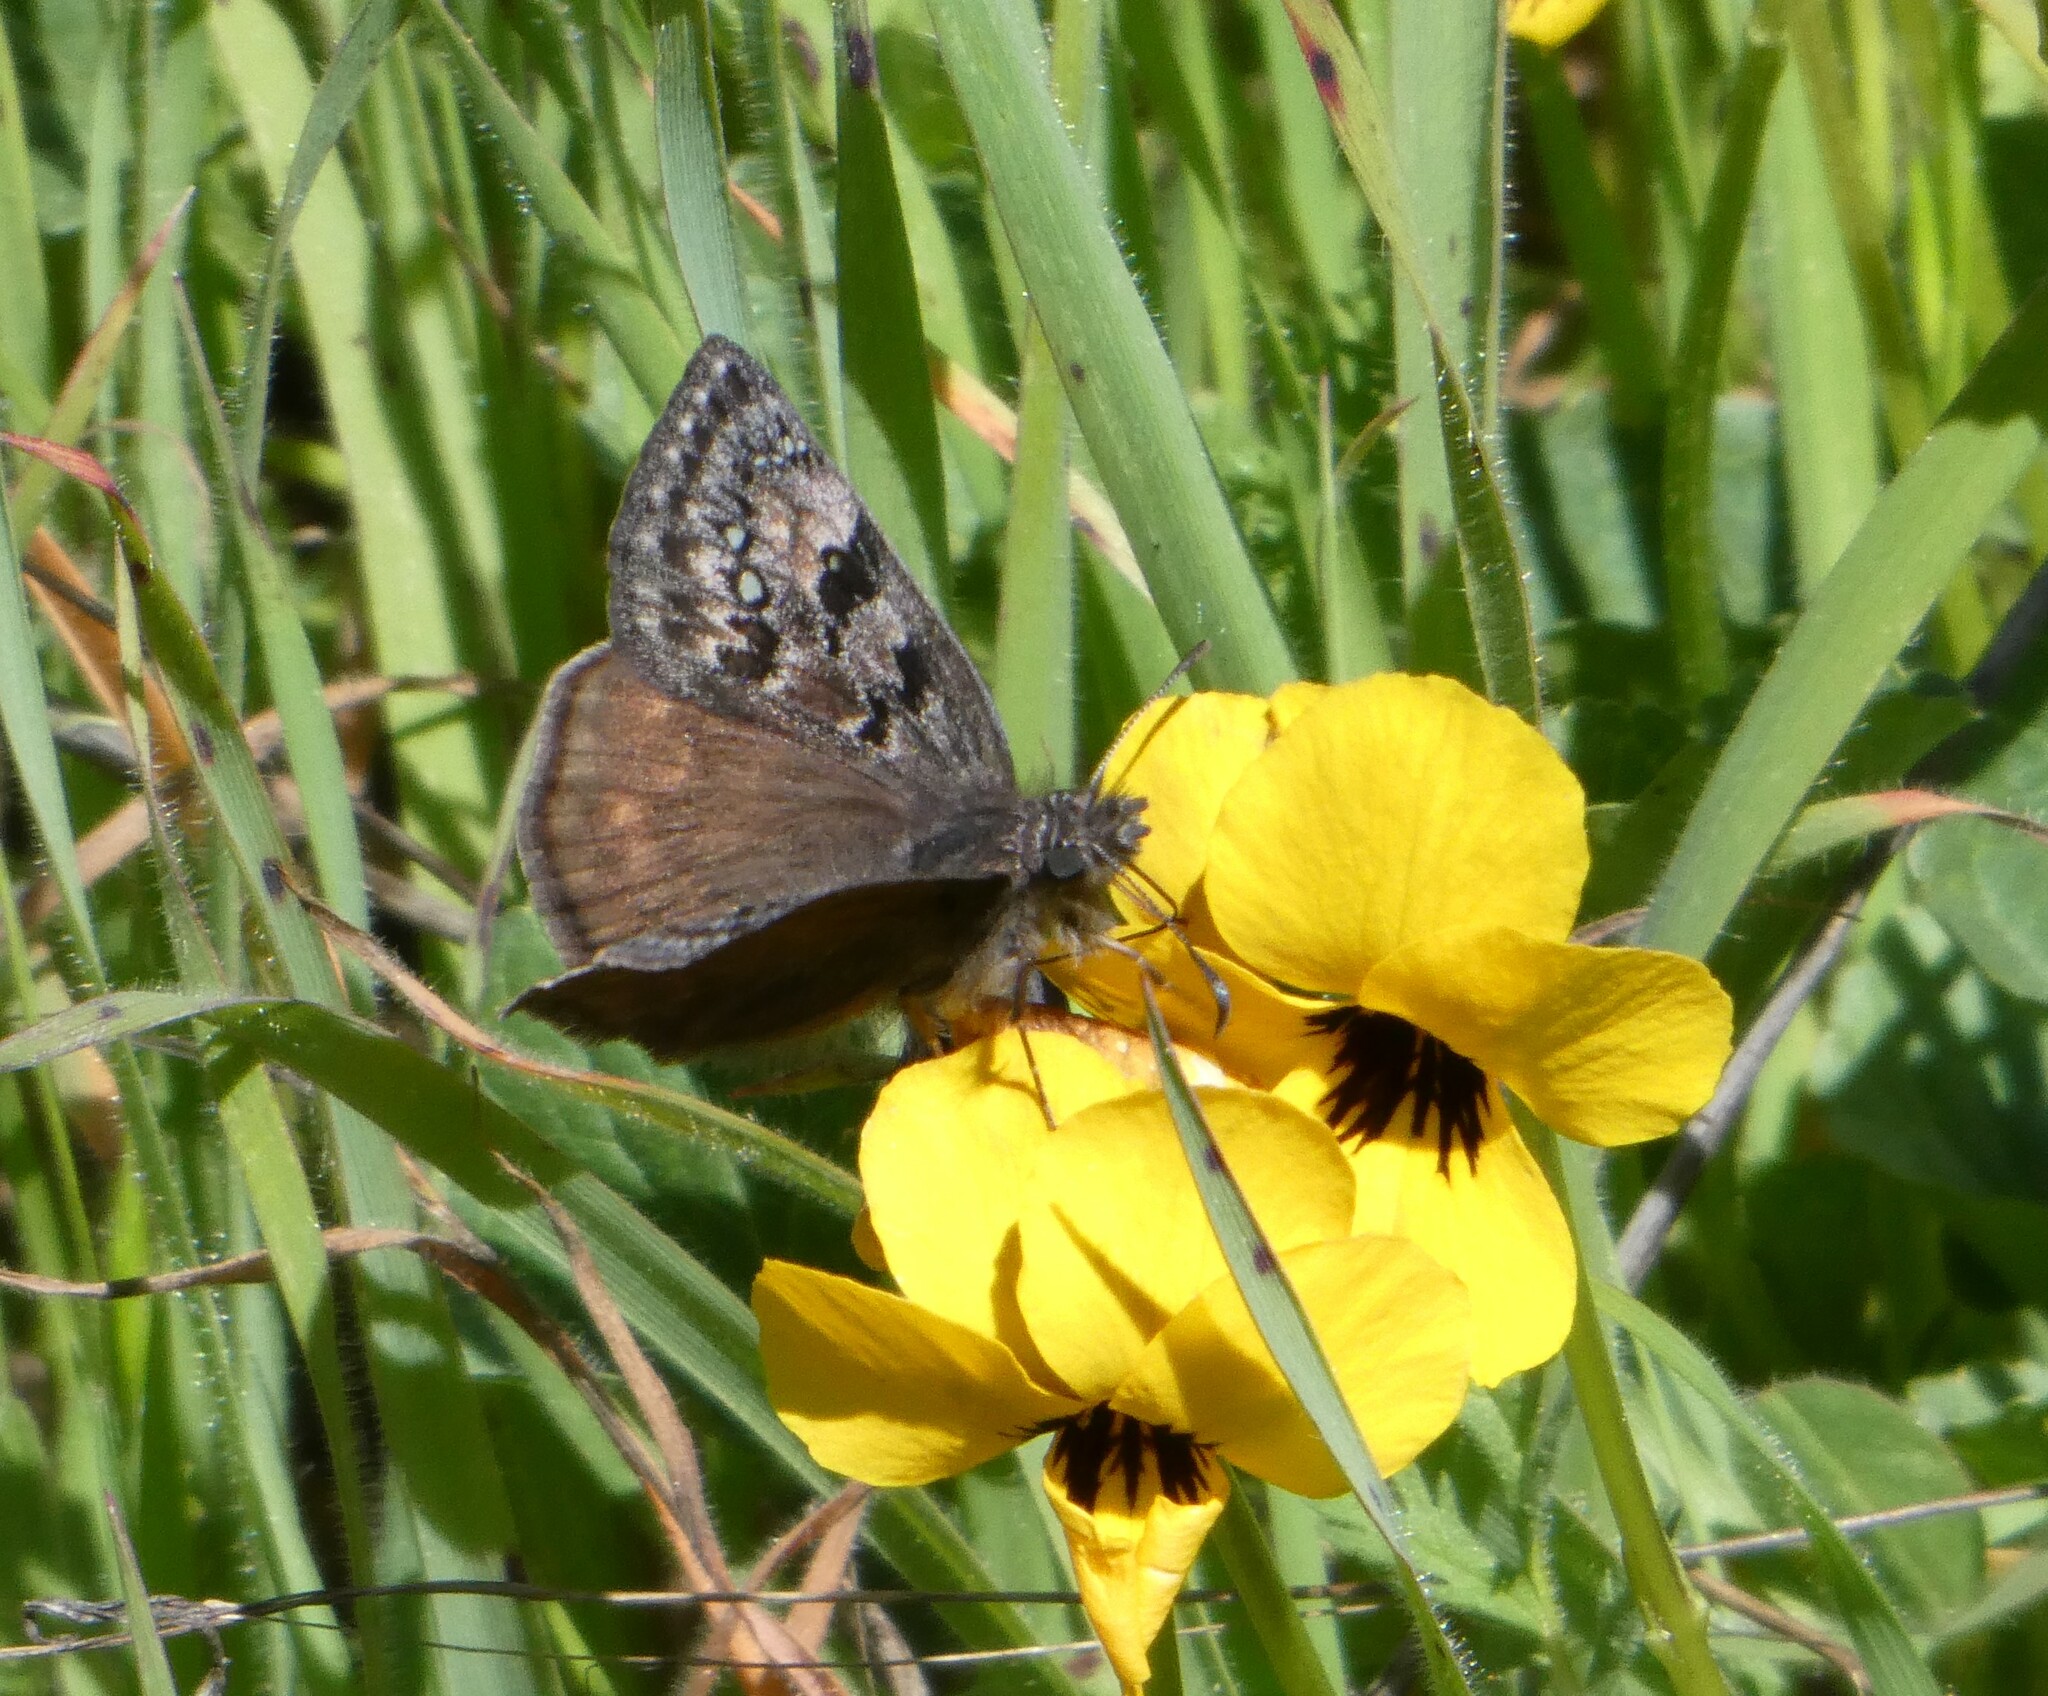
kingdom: Animalia
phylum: Arthropoda
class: Insecta
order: Lepidoptera
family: Hesperiidae
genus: Erynnis
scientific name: Erynnis propertius
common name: Propertius duskywing
